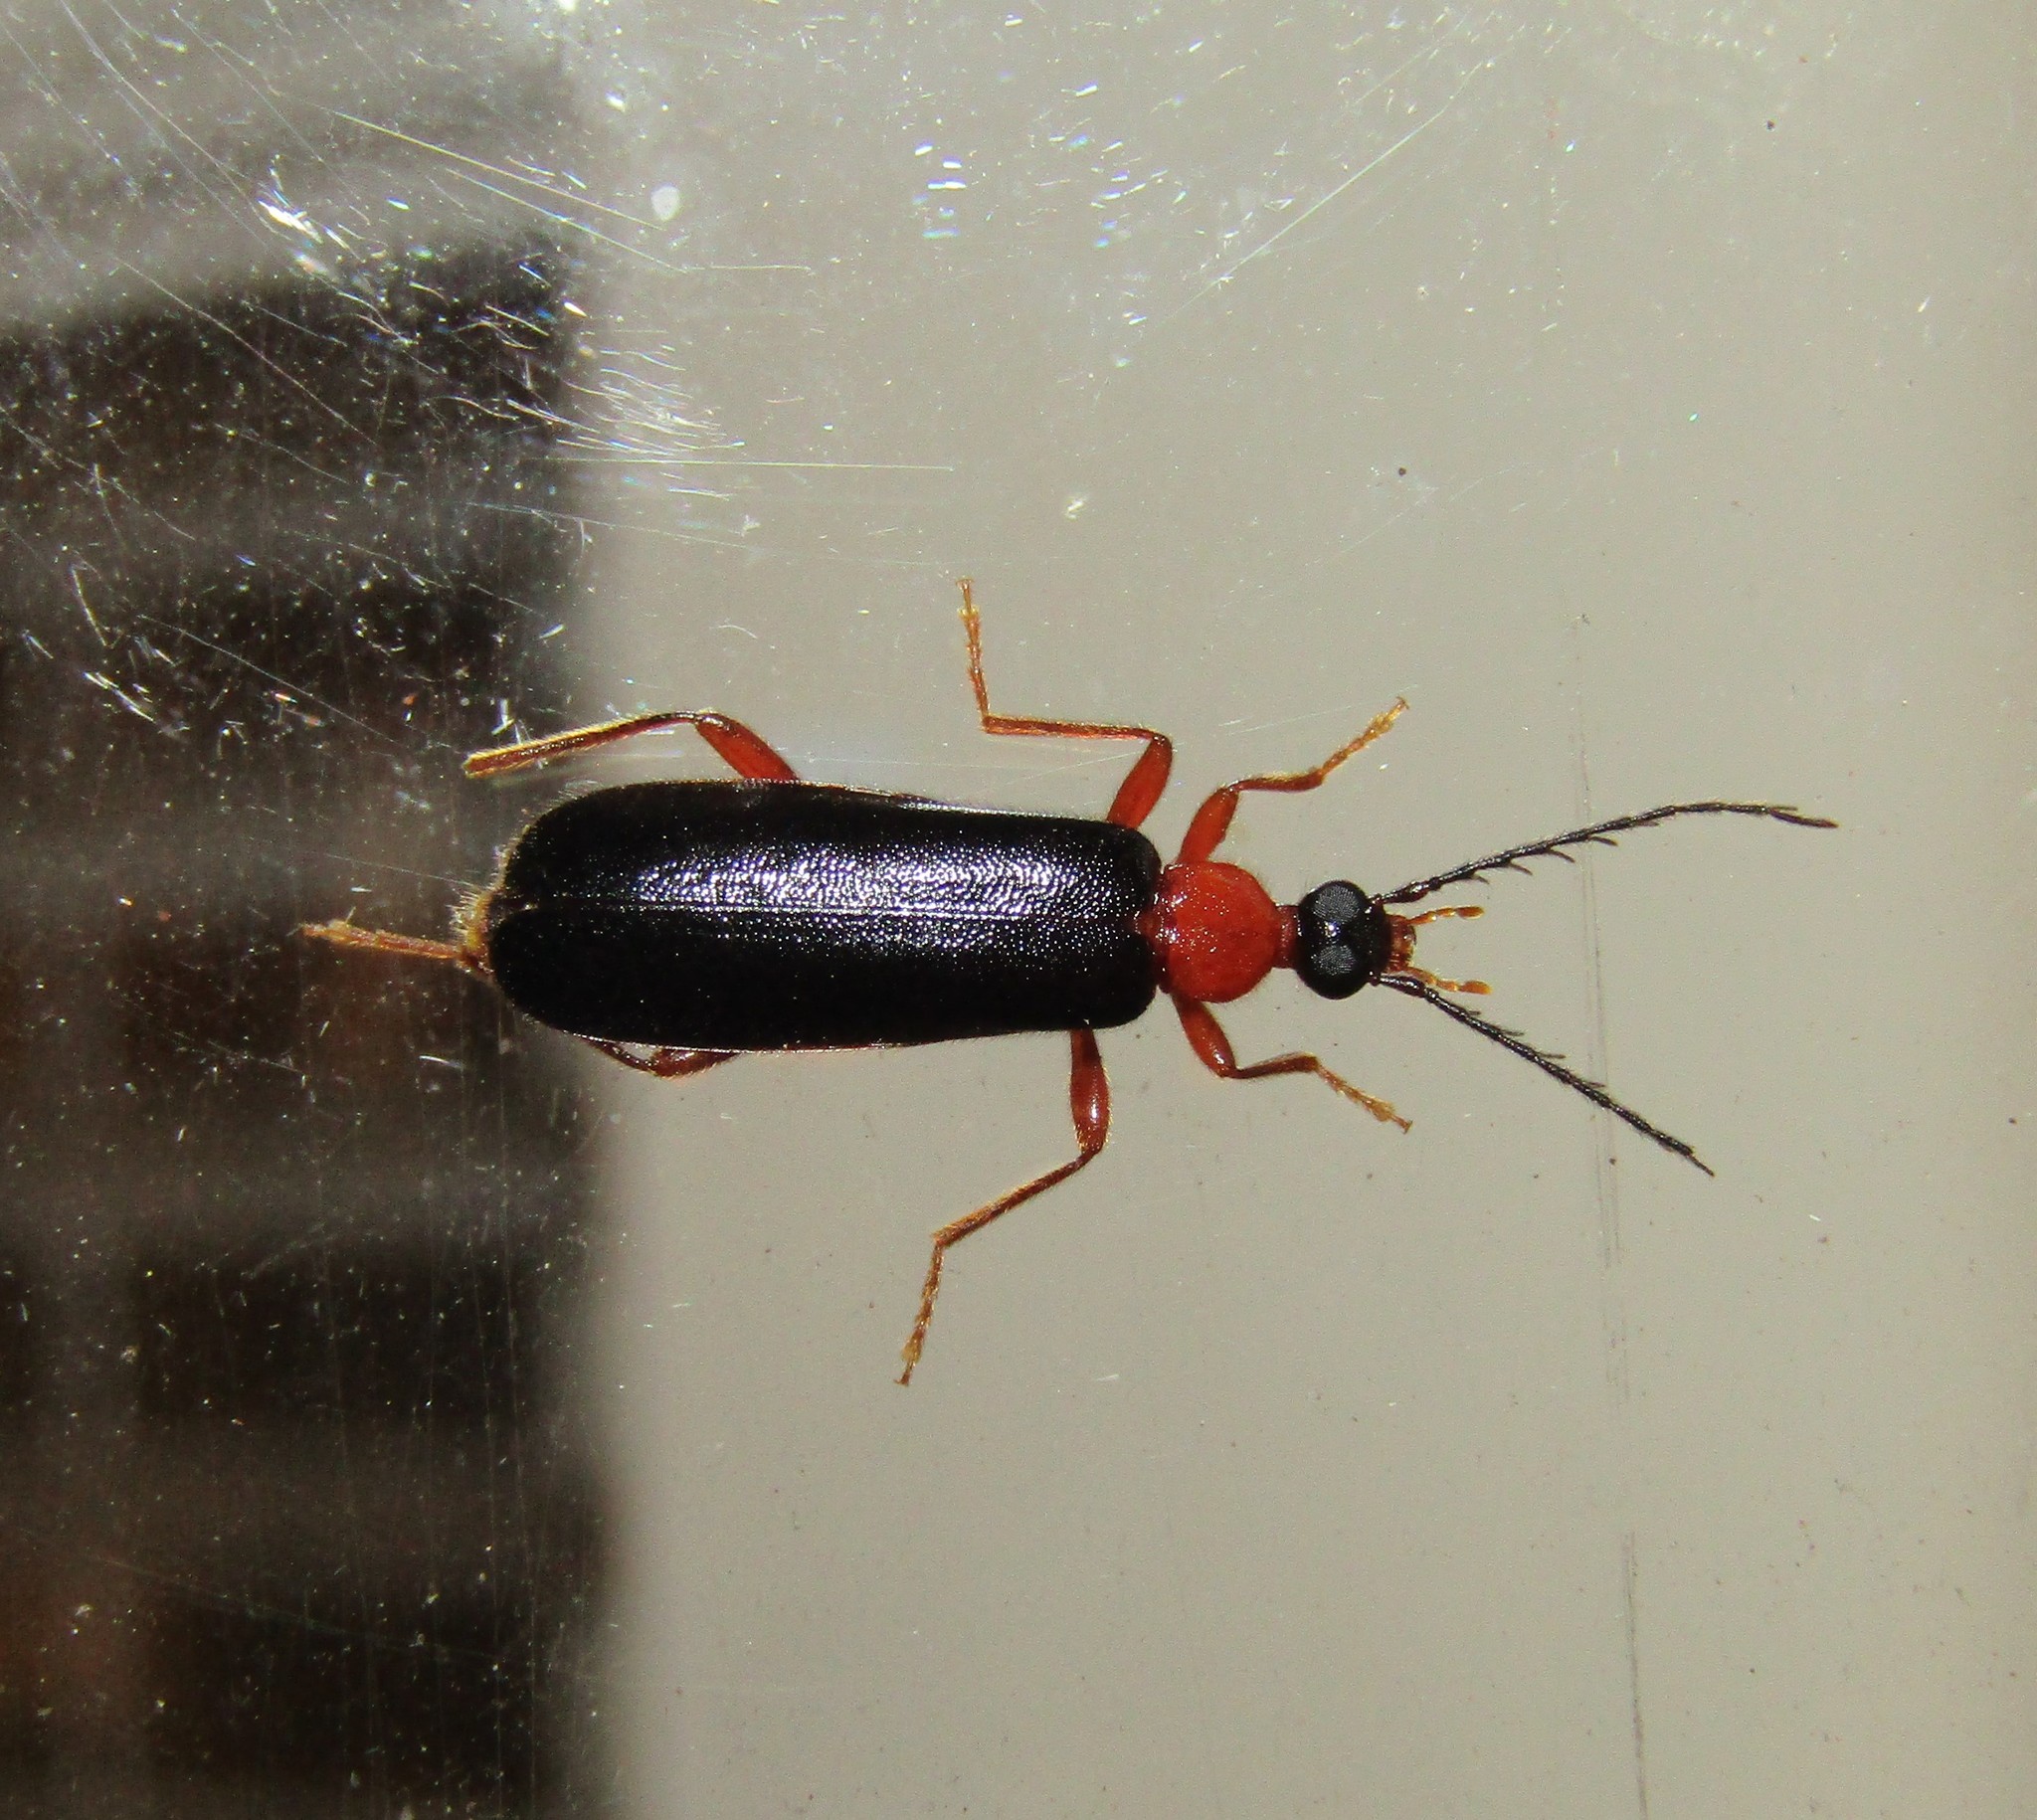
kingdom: Animalia
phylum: Arthropoda
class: Insecta
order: Coleoptera
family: Pyrochroidae
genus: Dendroides
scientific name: Dendroides canadensis
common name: Canada fire-colored beetle
